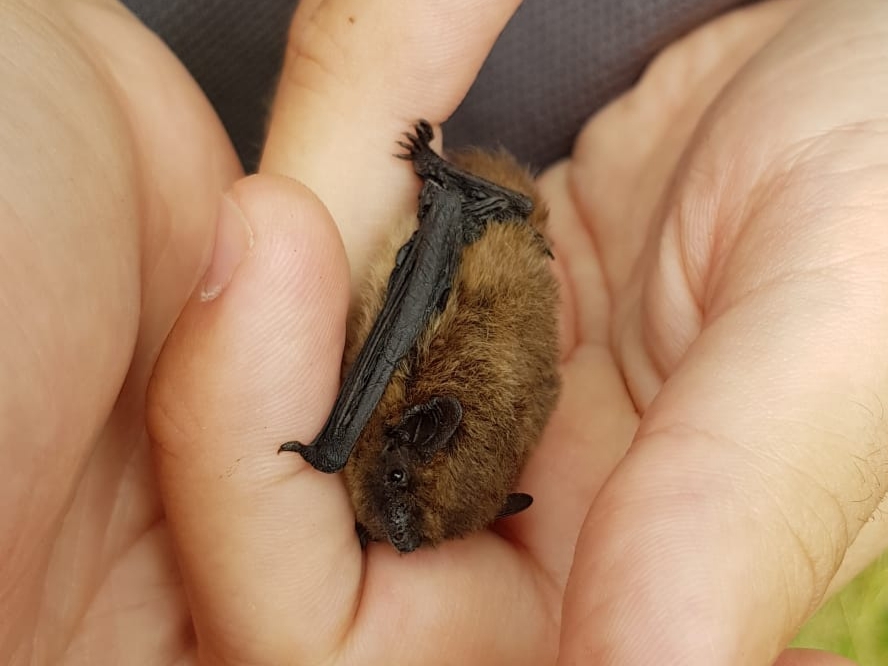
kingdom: Animalia
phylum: Chordata
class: Mammalia
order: Chiroptera
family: Vespertilionidae
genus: Pipistrellus
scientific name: Pipistrellus nathusii
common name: Nathusius's pipistrelle
